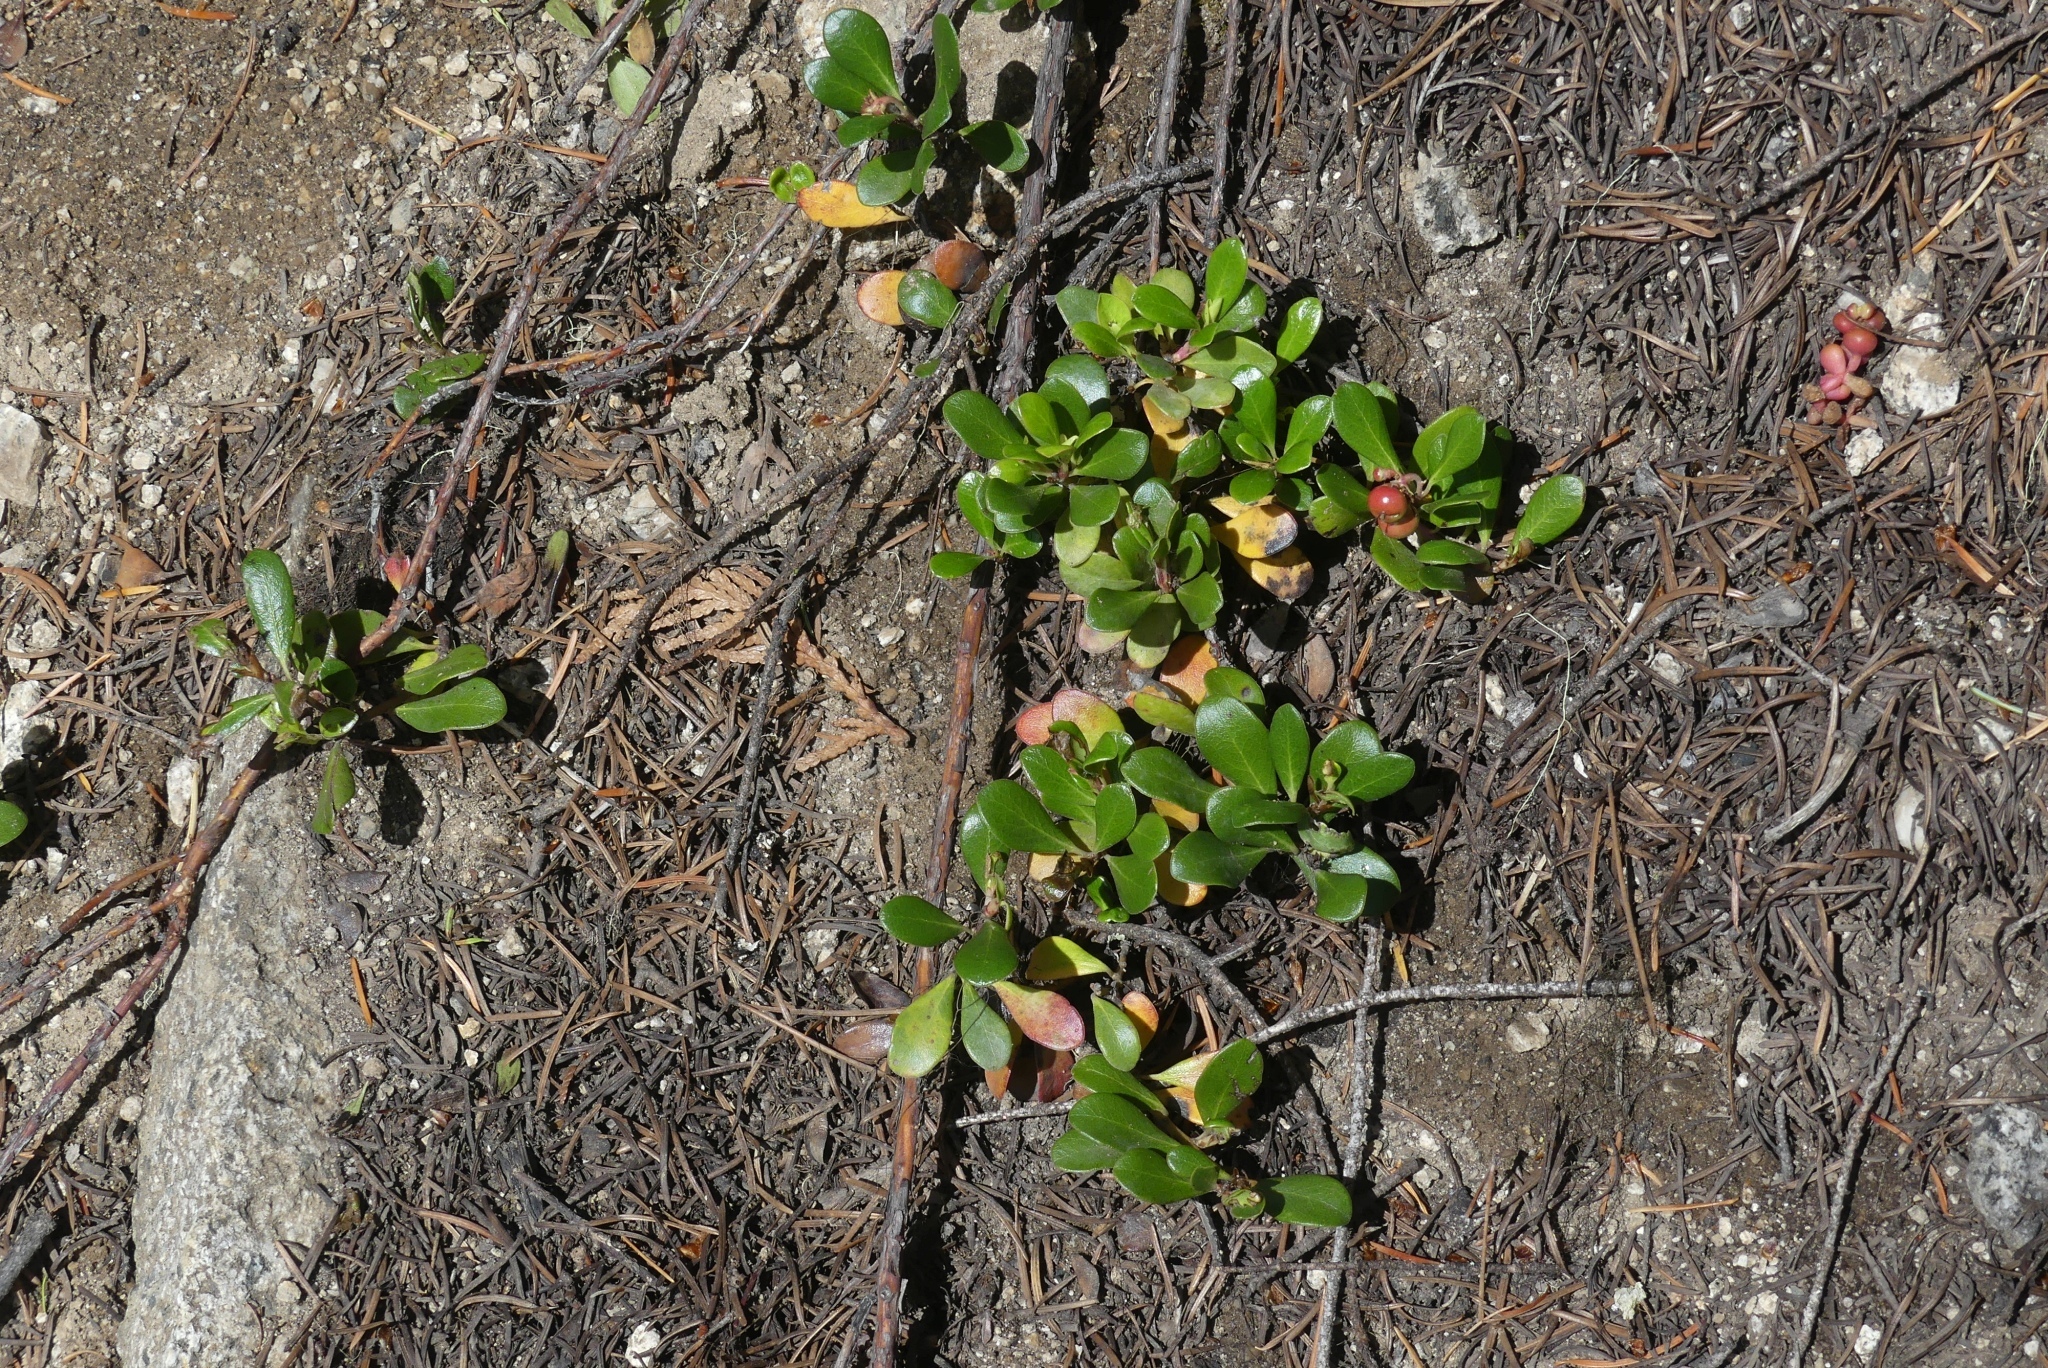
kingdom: Plantae
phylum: Tracheophyta
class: Magnoliopsida
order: Ericales
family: Ericaceae
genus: Arctostaphylos
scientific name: Arctostaphylos uva-ursi
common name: Bearberry
